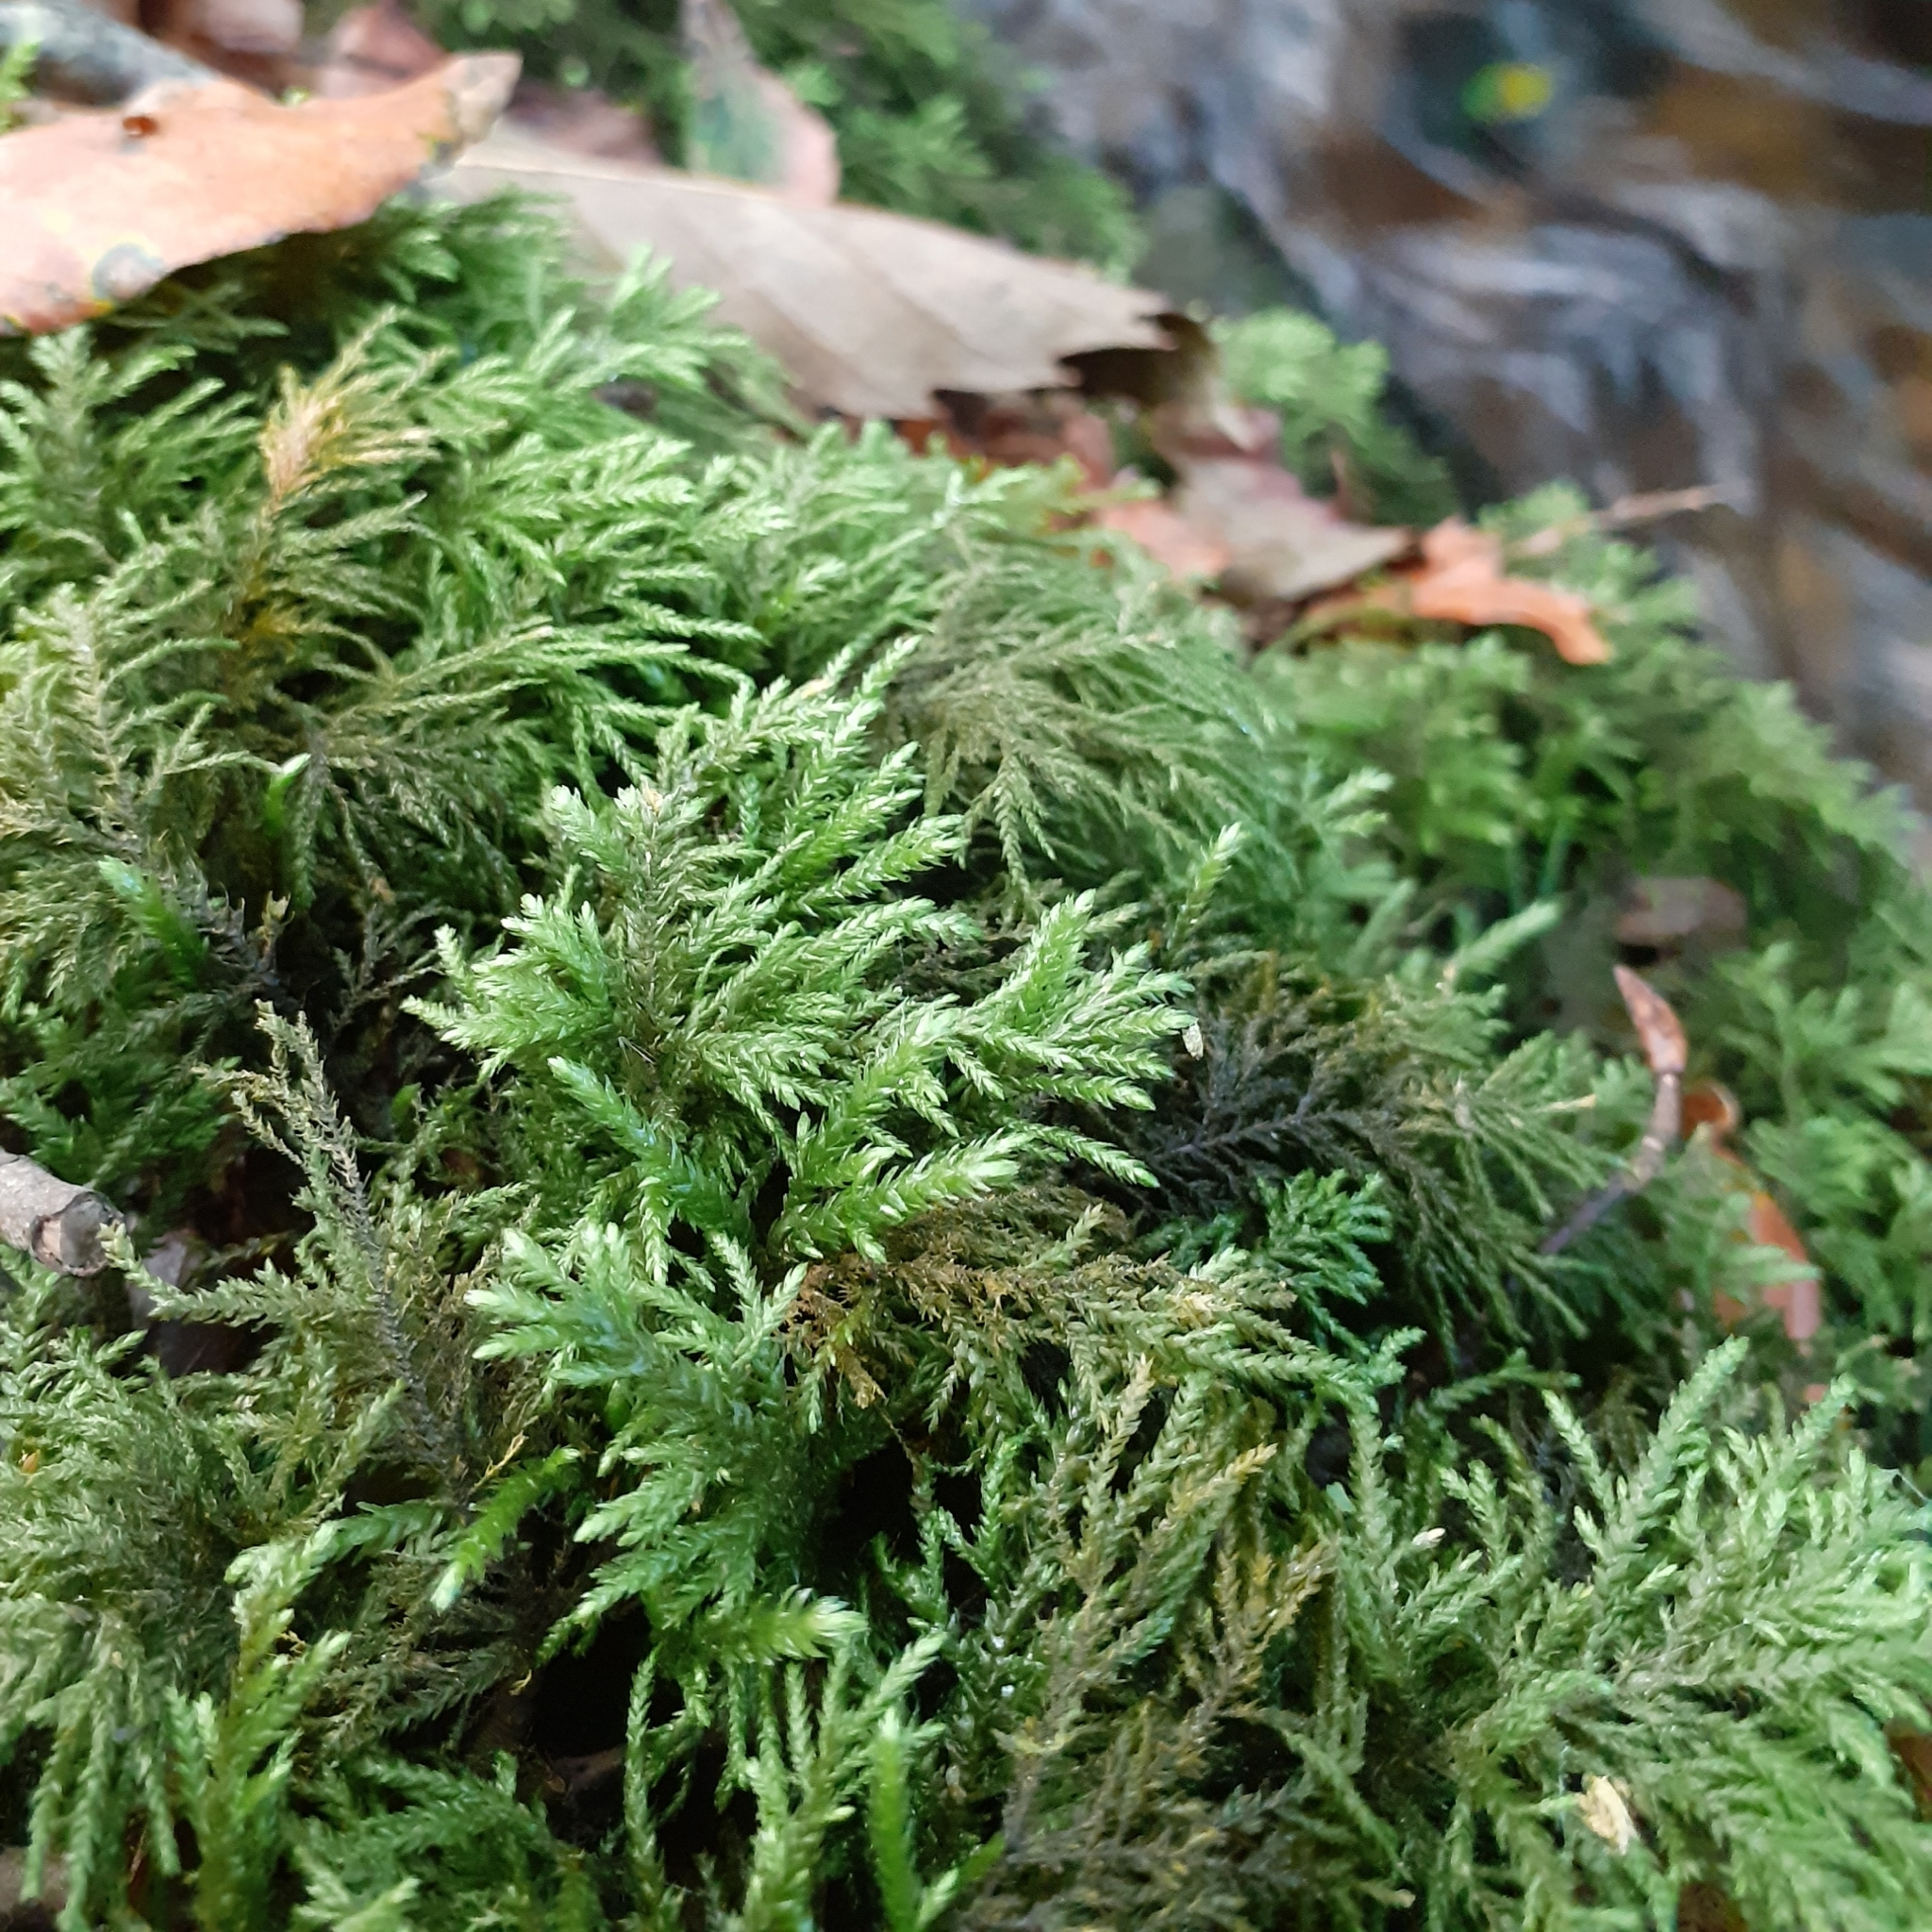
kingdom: Plantae
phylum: Bryophyta
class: Bryopsida
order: Hypnales
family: Neckeraceae
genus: Thamnobryum
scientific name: Thamnobryum alopecurum
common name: Fox-tail feather-moss
